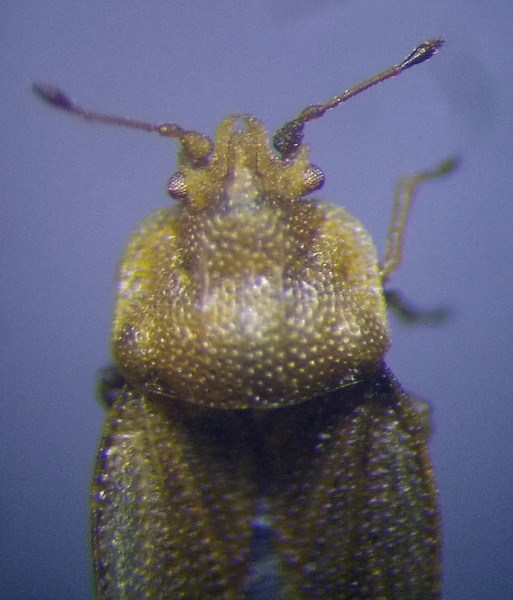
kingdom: Animalia
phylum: Arthropoda
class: Insecta
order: Hemiptera
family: Piesmatidae
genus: Parapiesma
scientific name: Parapiesma kolenatii
